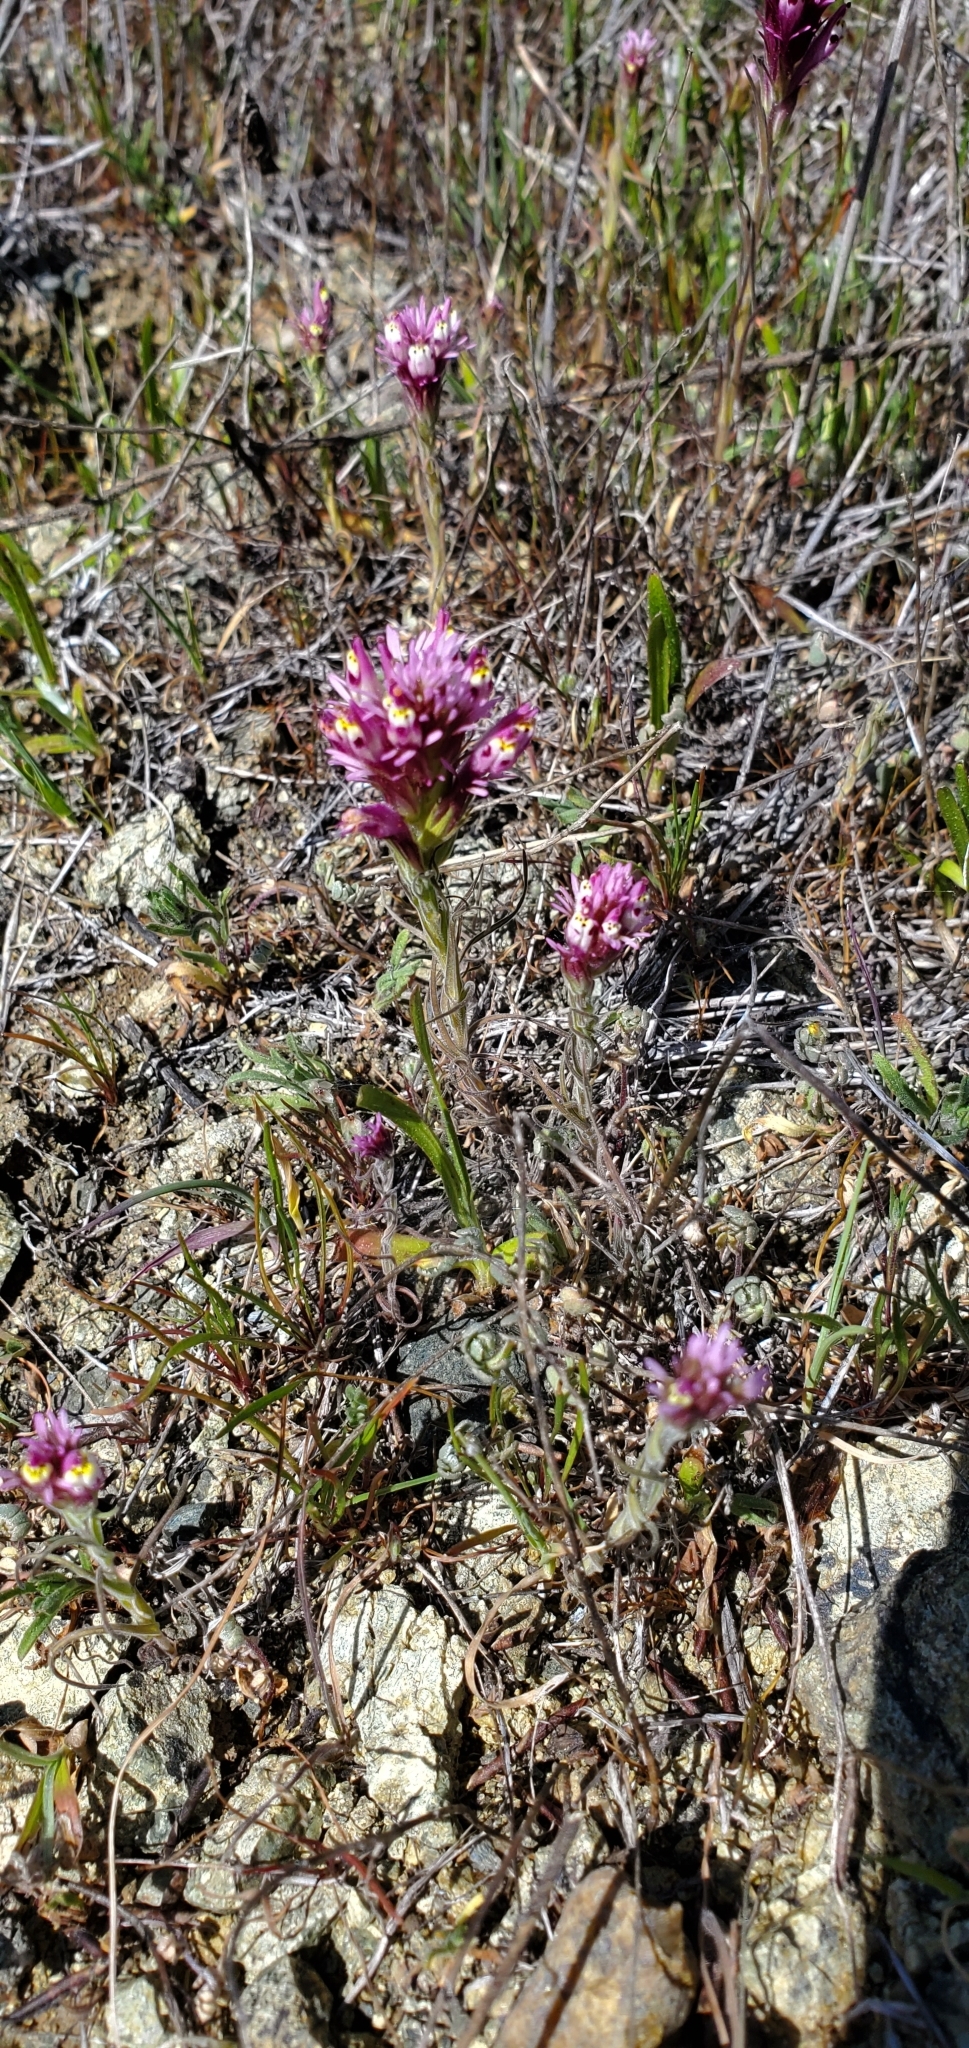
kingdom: Plantae
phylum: Tracheophyta
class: Magnoliopsida
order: Lamiales
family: Orobanchaceae
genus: Castilleja
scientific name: Castilleja densiflora
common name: Dense-flower indian paintbrush
